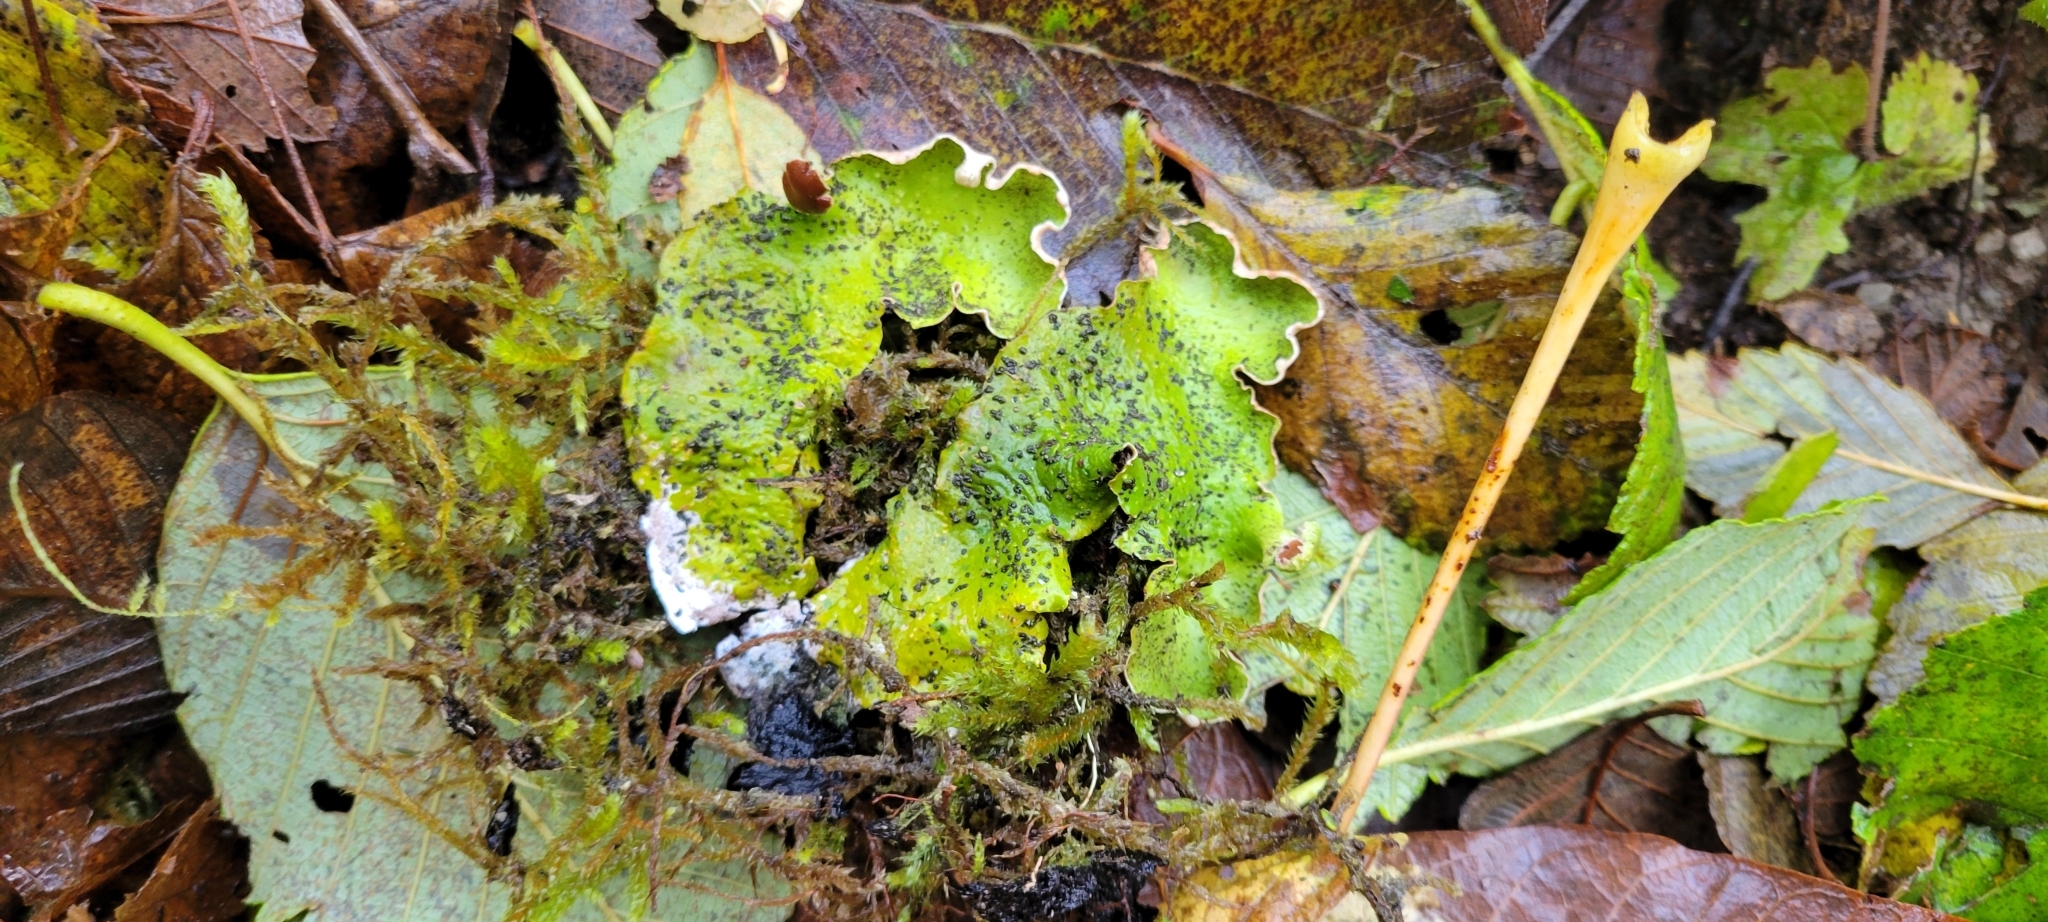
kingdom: Fungi
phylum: Ascomycota
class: Lecanoromycetes
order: Peltigerales
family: Peltigeraceae
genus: Peltigera
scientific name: Peltigera britannica
